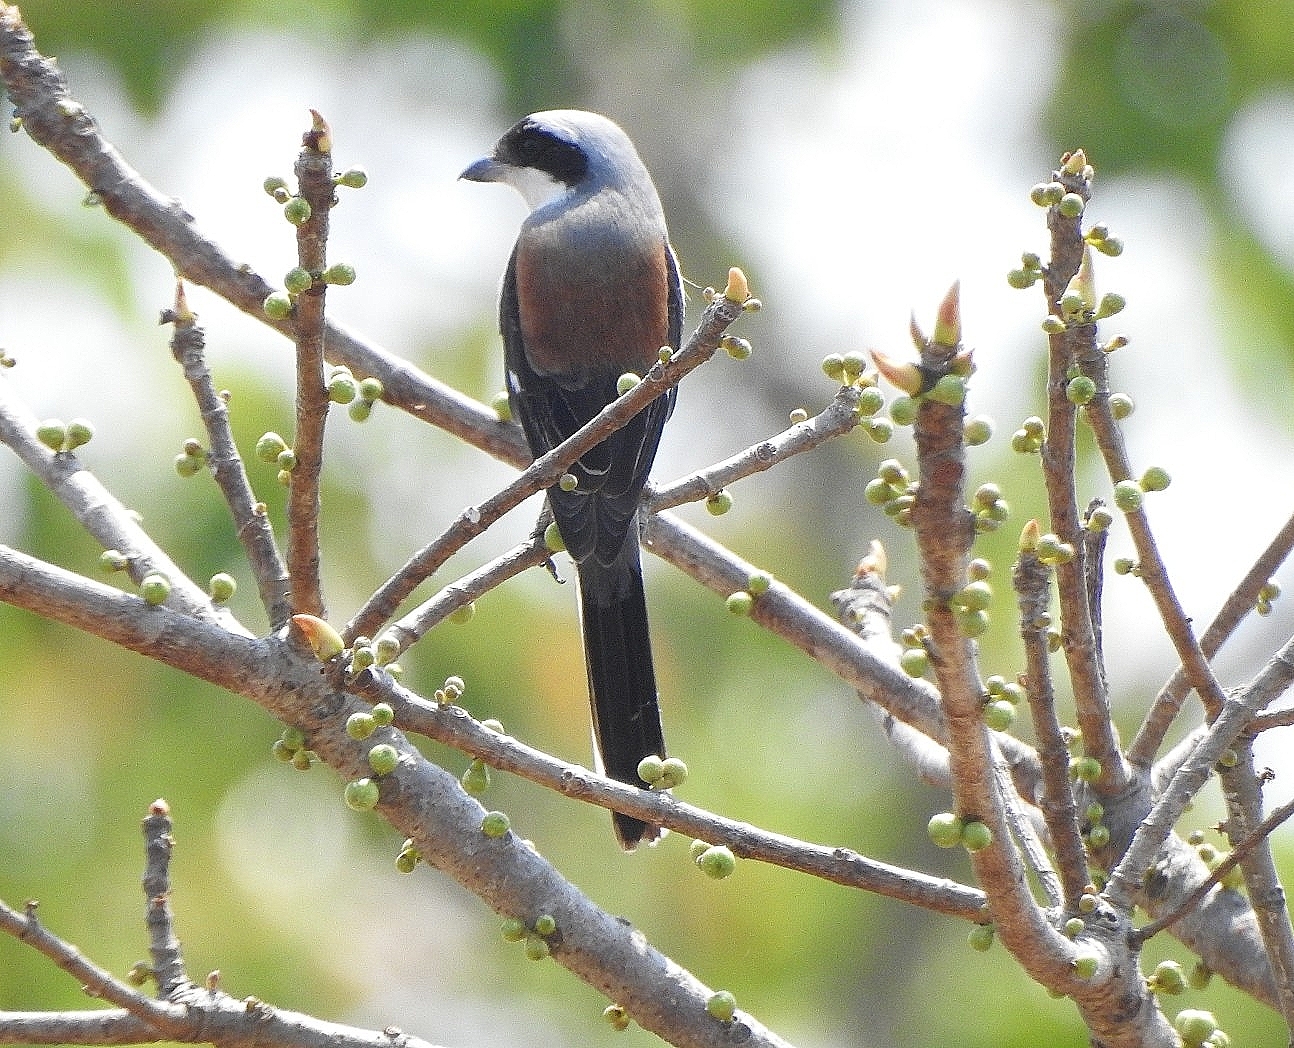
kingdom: Animalia
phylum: Chordata
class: Aves
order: Passeriformes
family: Laniidae
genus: Lanius
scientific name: Lanius vittatus
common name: Bay-backed shrike
